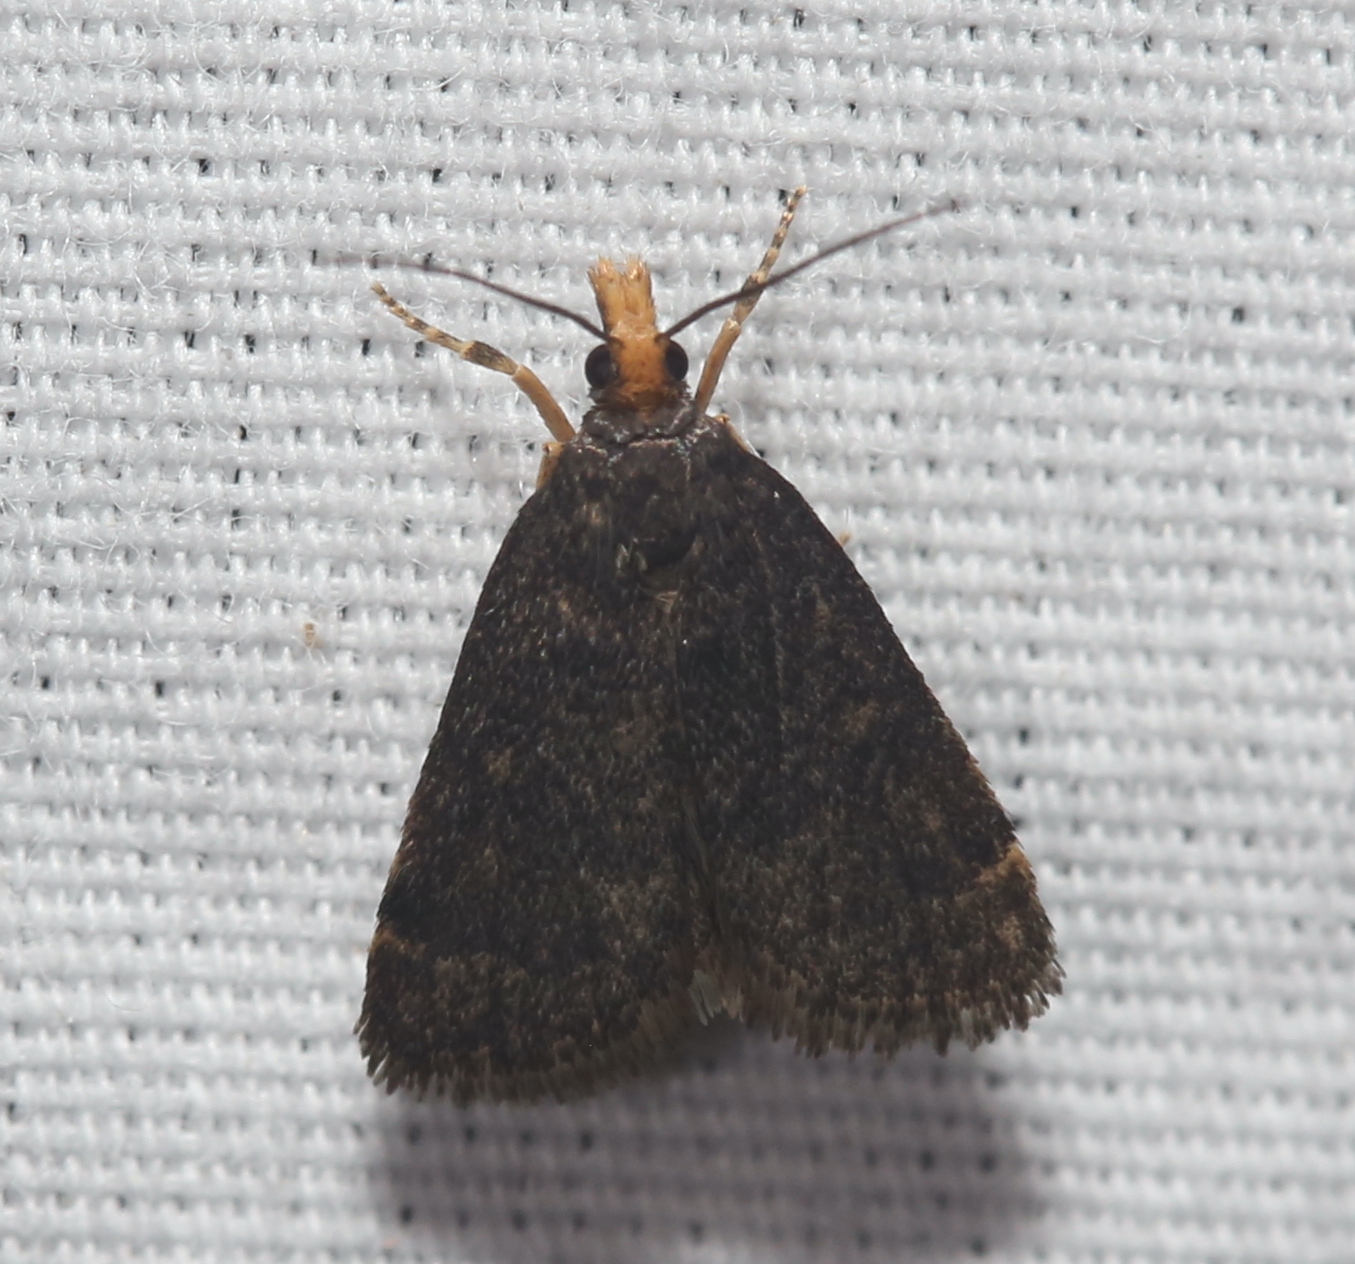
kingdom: Animalia
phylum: Arthropoda
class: Insecta
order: Lepidoptera
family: Crambidae
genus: Pyrausta
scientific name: Pyrausta merrickalis
